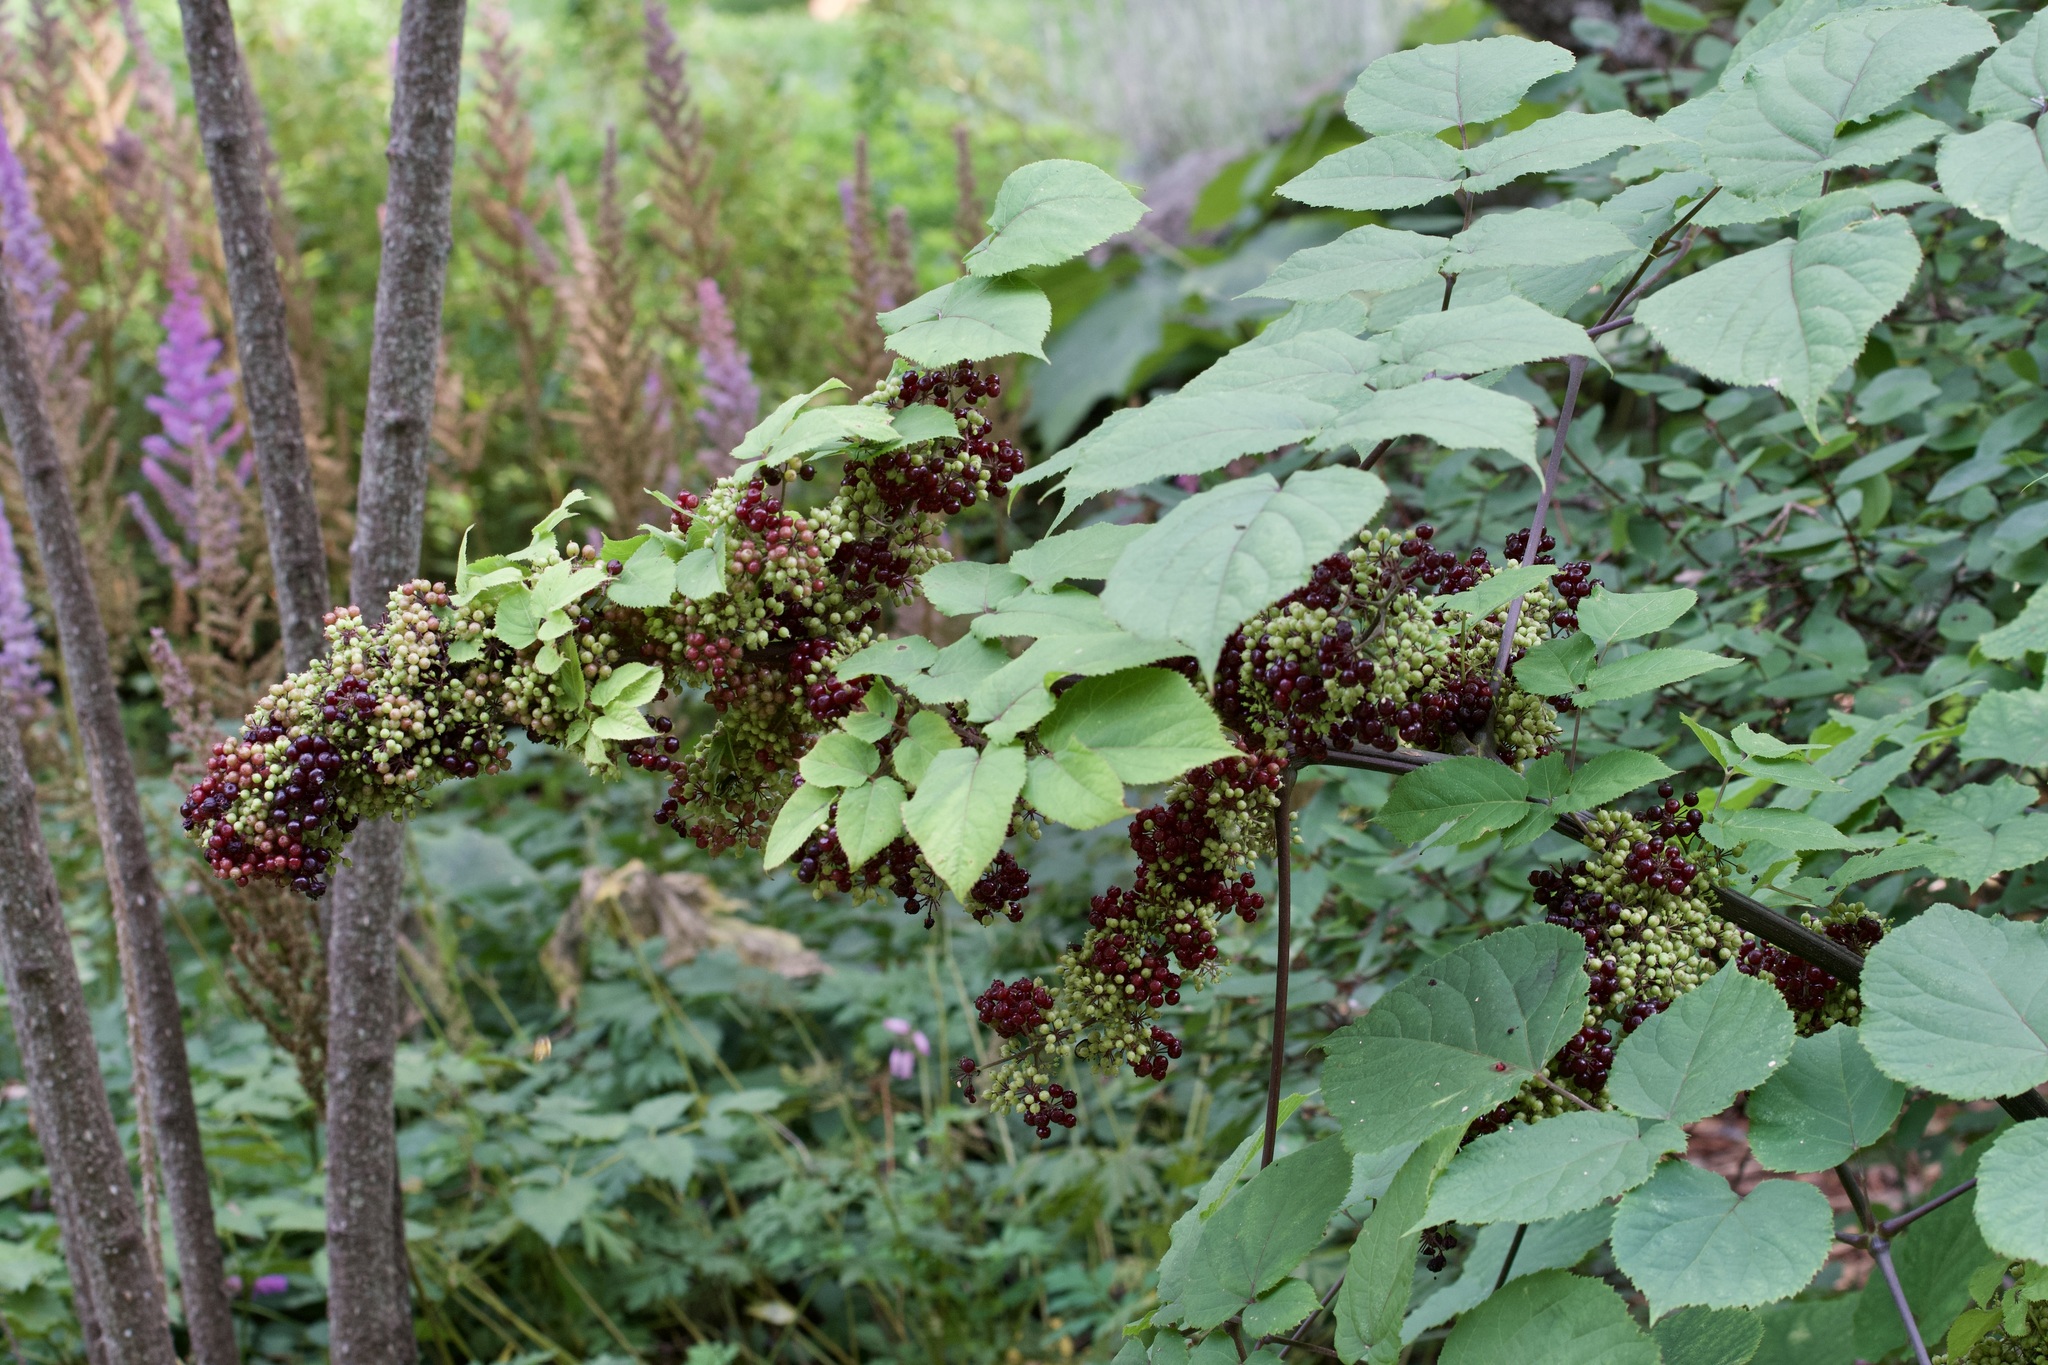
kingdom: Plantae
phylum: Tracheophyta
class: Magnoliopsida
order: Apiales
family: Araliaceae
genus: Aralia
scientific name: Aralia racemosa
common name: American-spikenard
